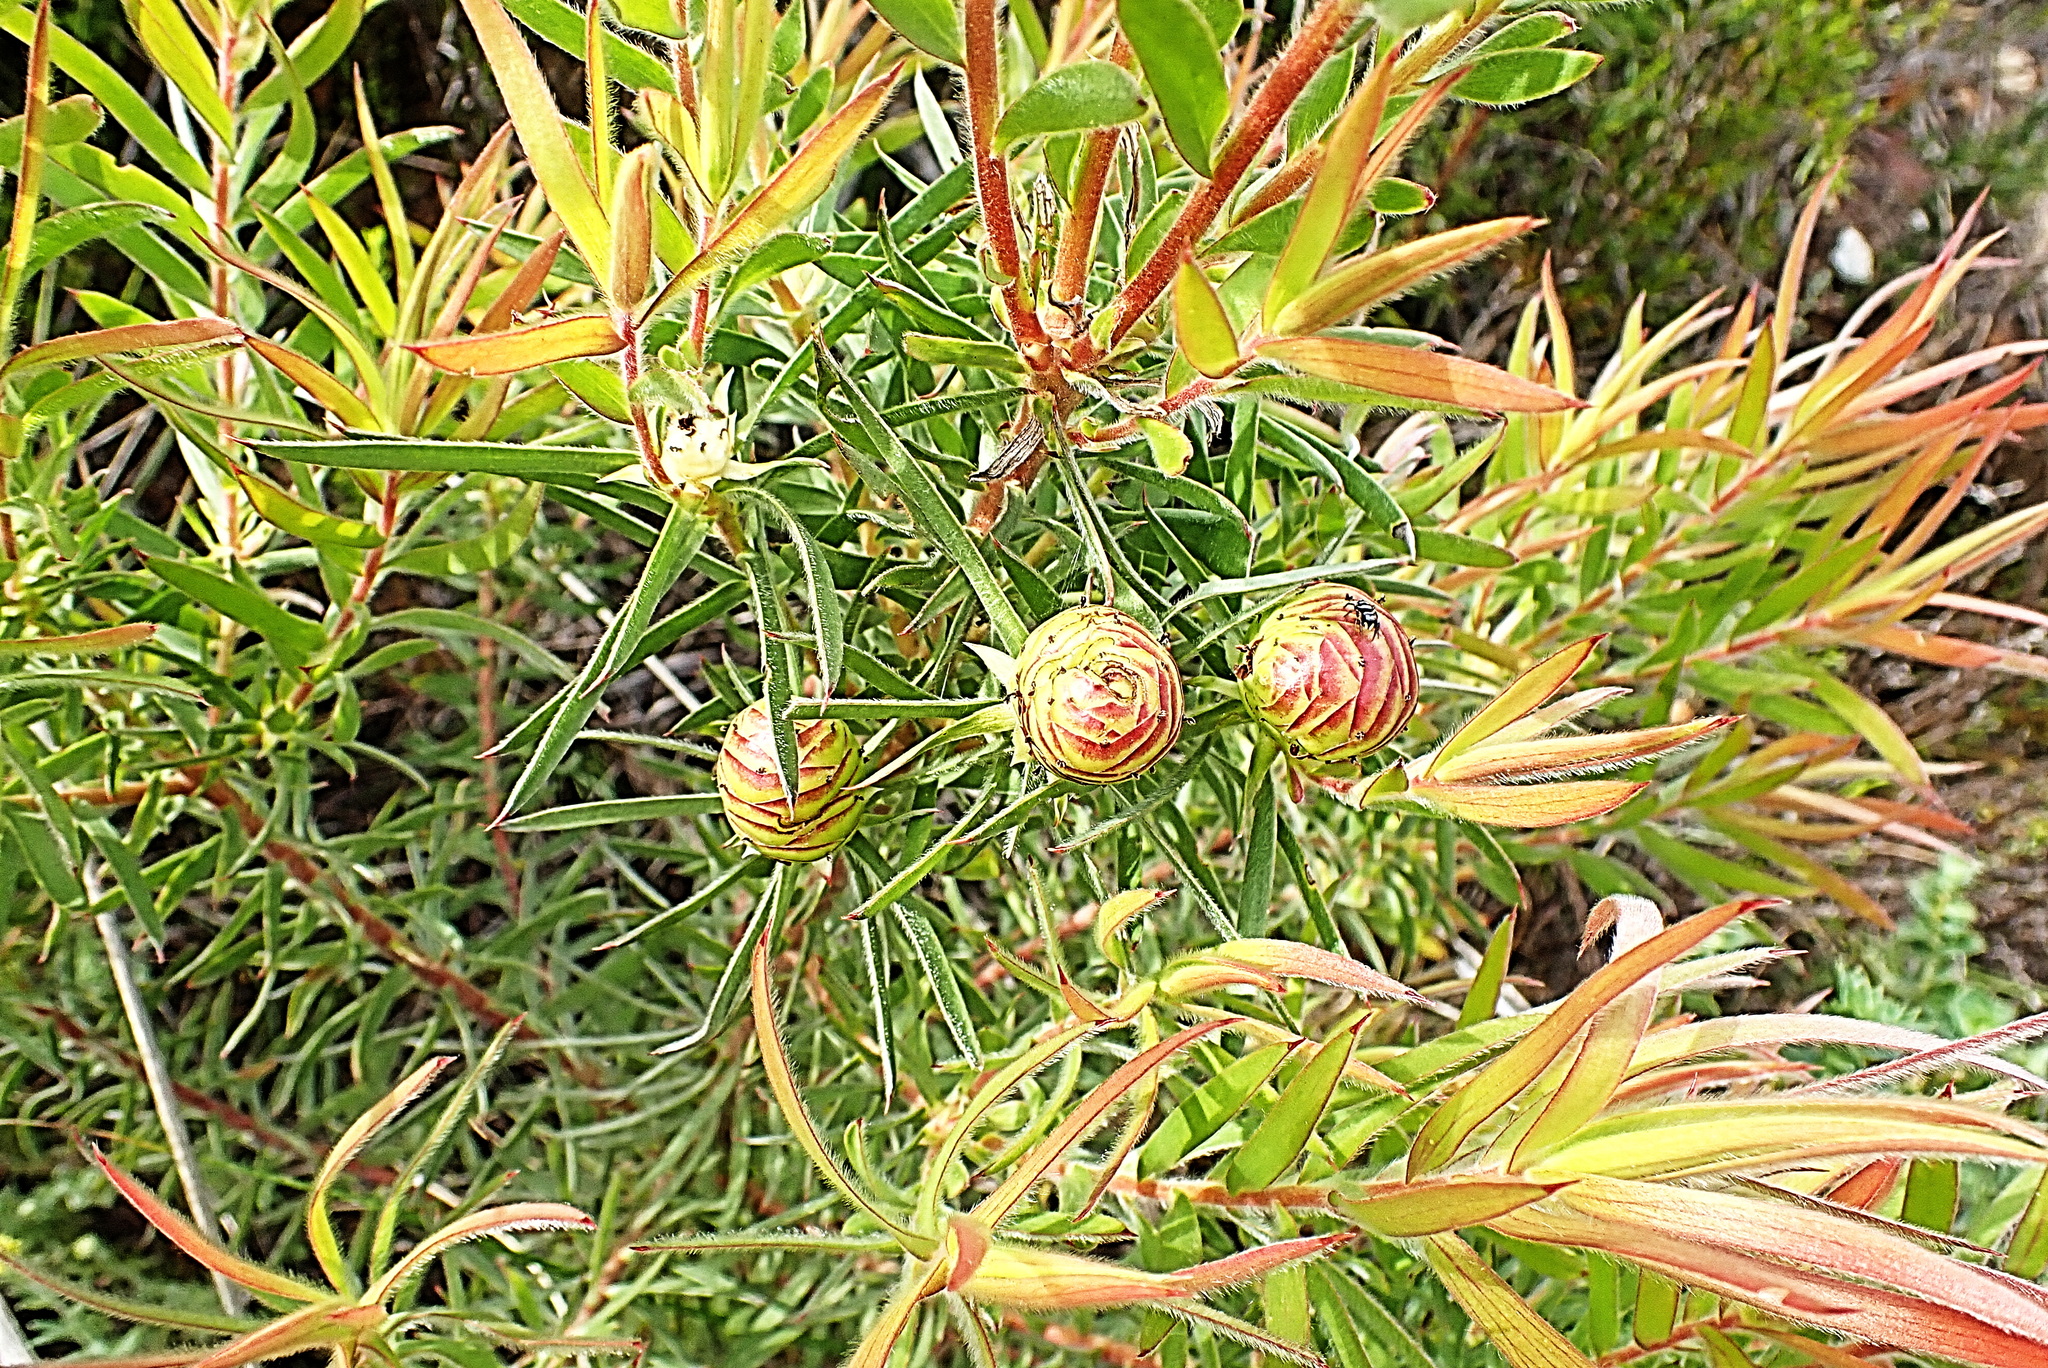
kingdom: Plantae
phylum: Tracheophyta
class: Magnoliopsida
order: Proteales
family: Proteaceae
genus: Leucadendron
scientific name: Leucadendron salicifolium
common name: Common stream conebush
